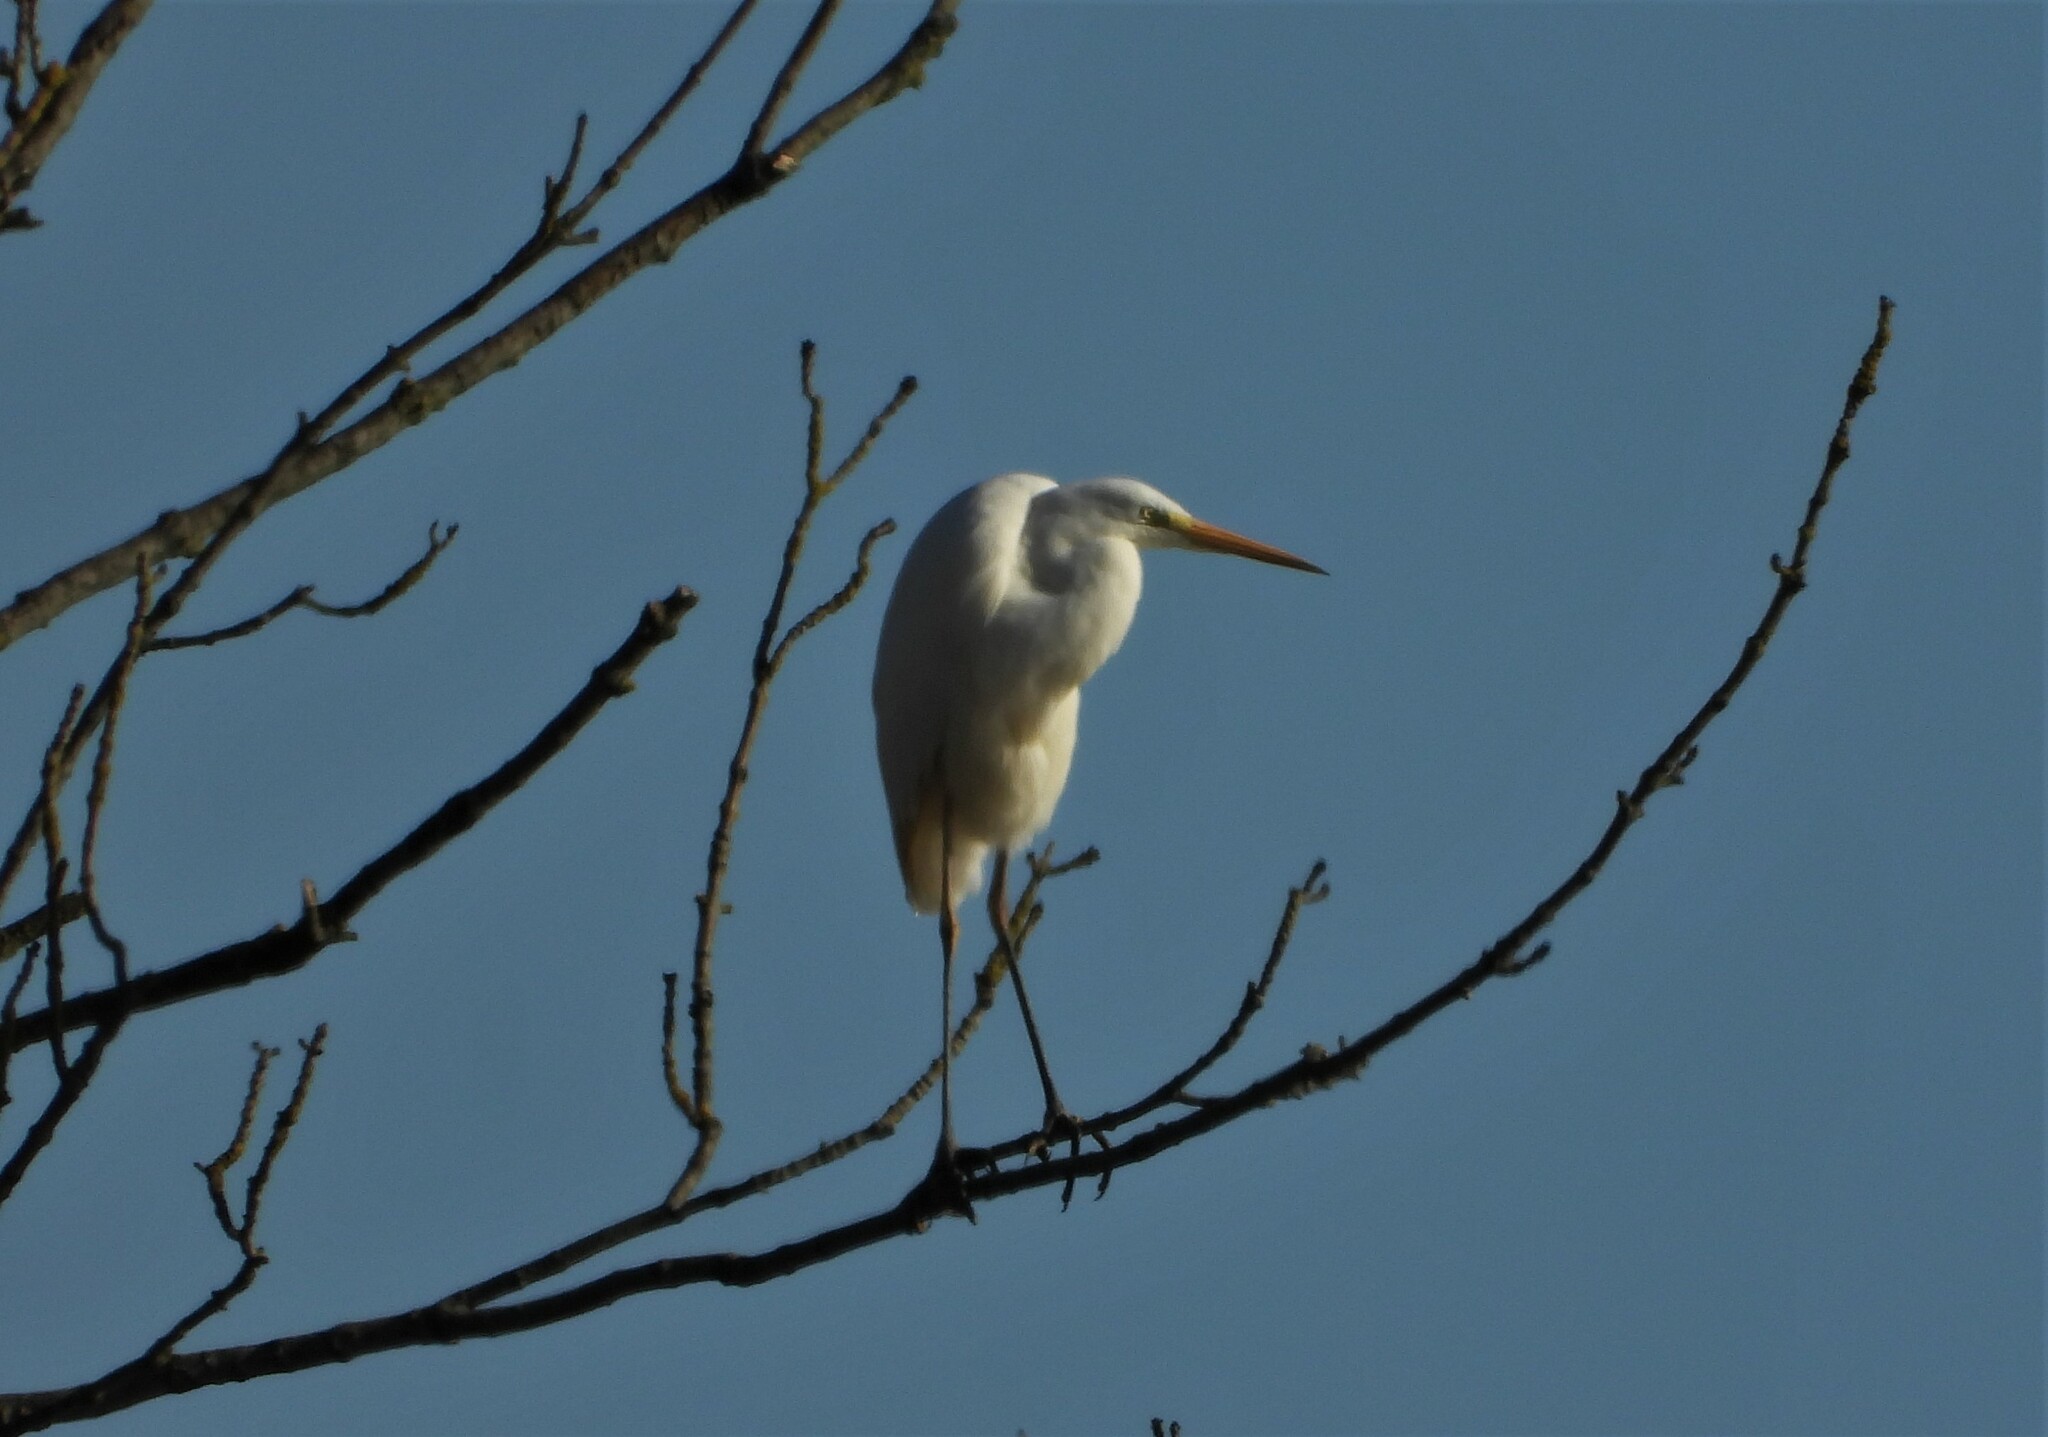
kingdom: Animalia
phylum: Chordata
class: Aves
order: Pelecaniformes
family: Ardeidae
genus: Ardea
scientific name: Ardea alba
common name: Great egret
